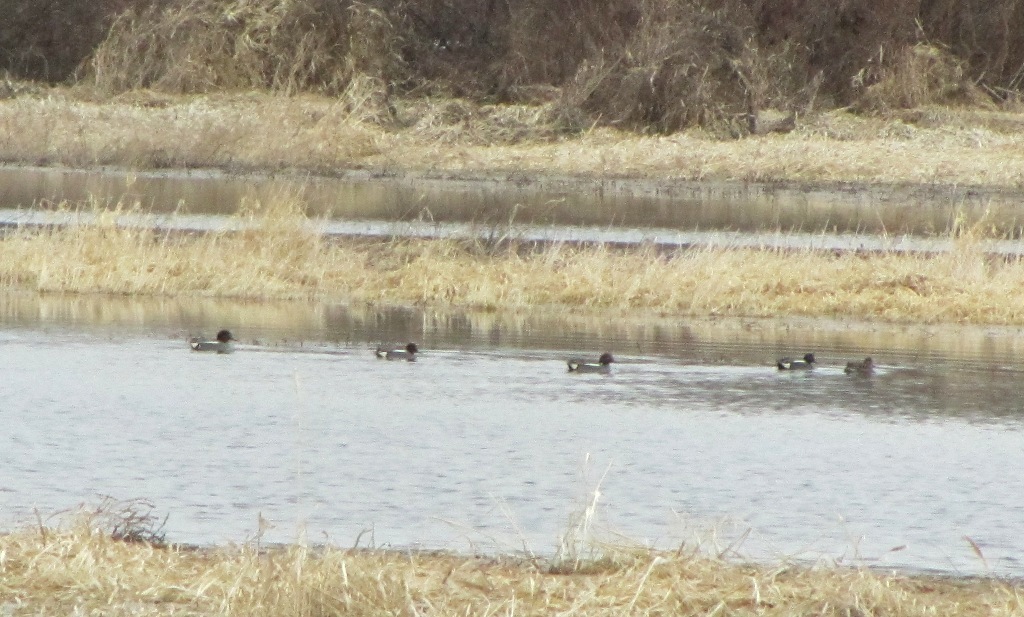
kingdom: Animalia
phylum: Chordata
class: Aves
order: Anseriformes
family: Anatidae
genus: Anas
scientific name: Anas crecca
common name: Eurasian teal
